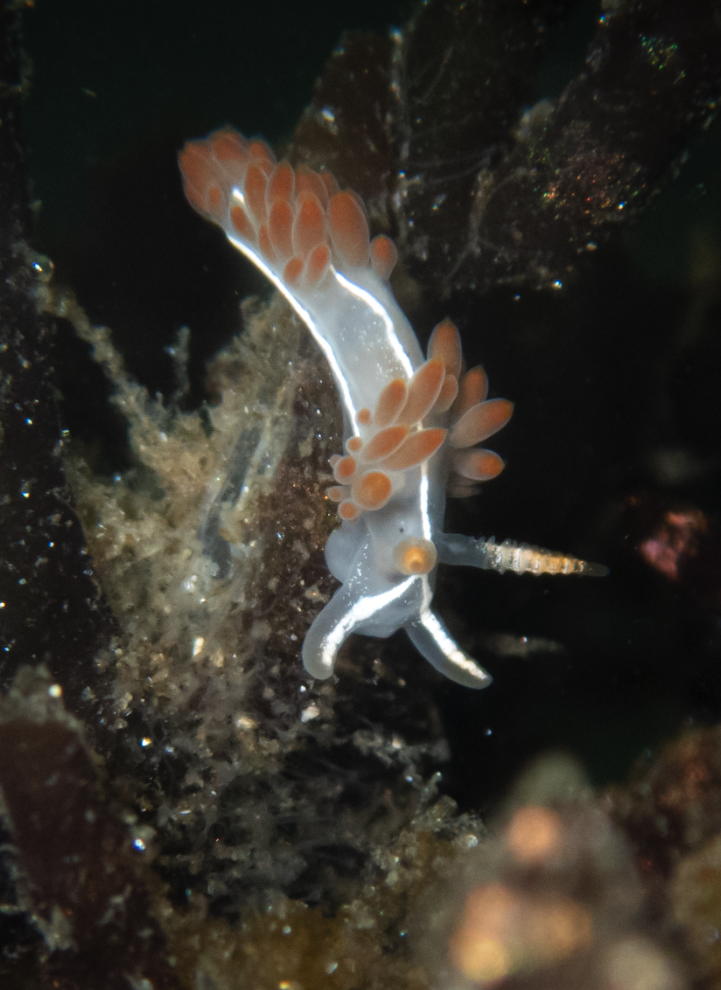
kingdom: Animalia
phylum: Mollusca
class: Gastropoda
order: Nudibranchia
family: Coryphellidae
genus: Coryphella
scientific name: Coryphella trilineata
